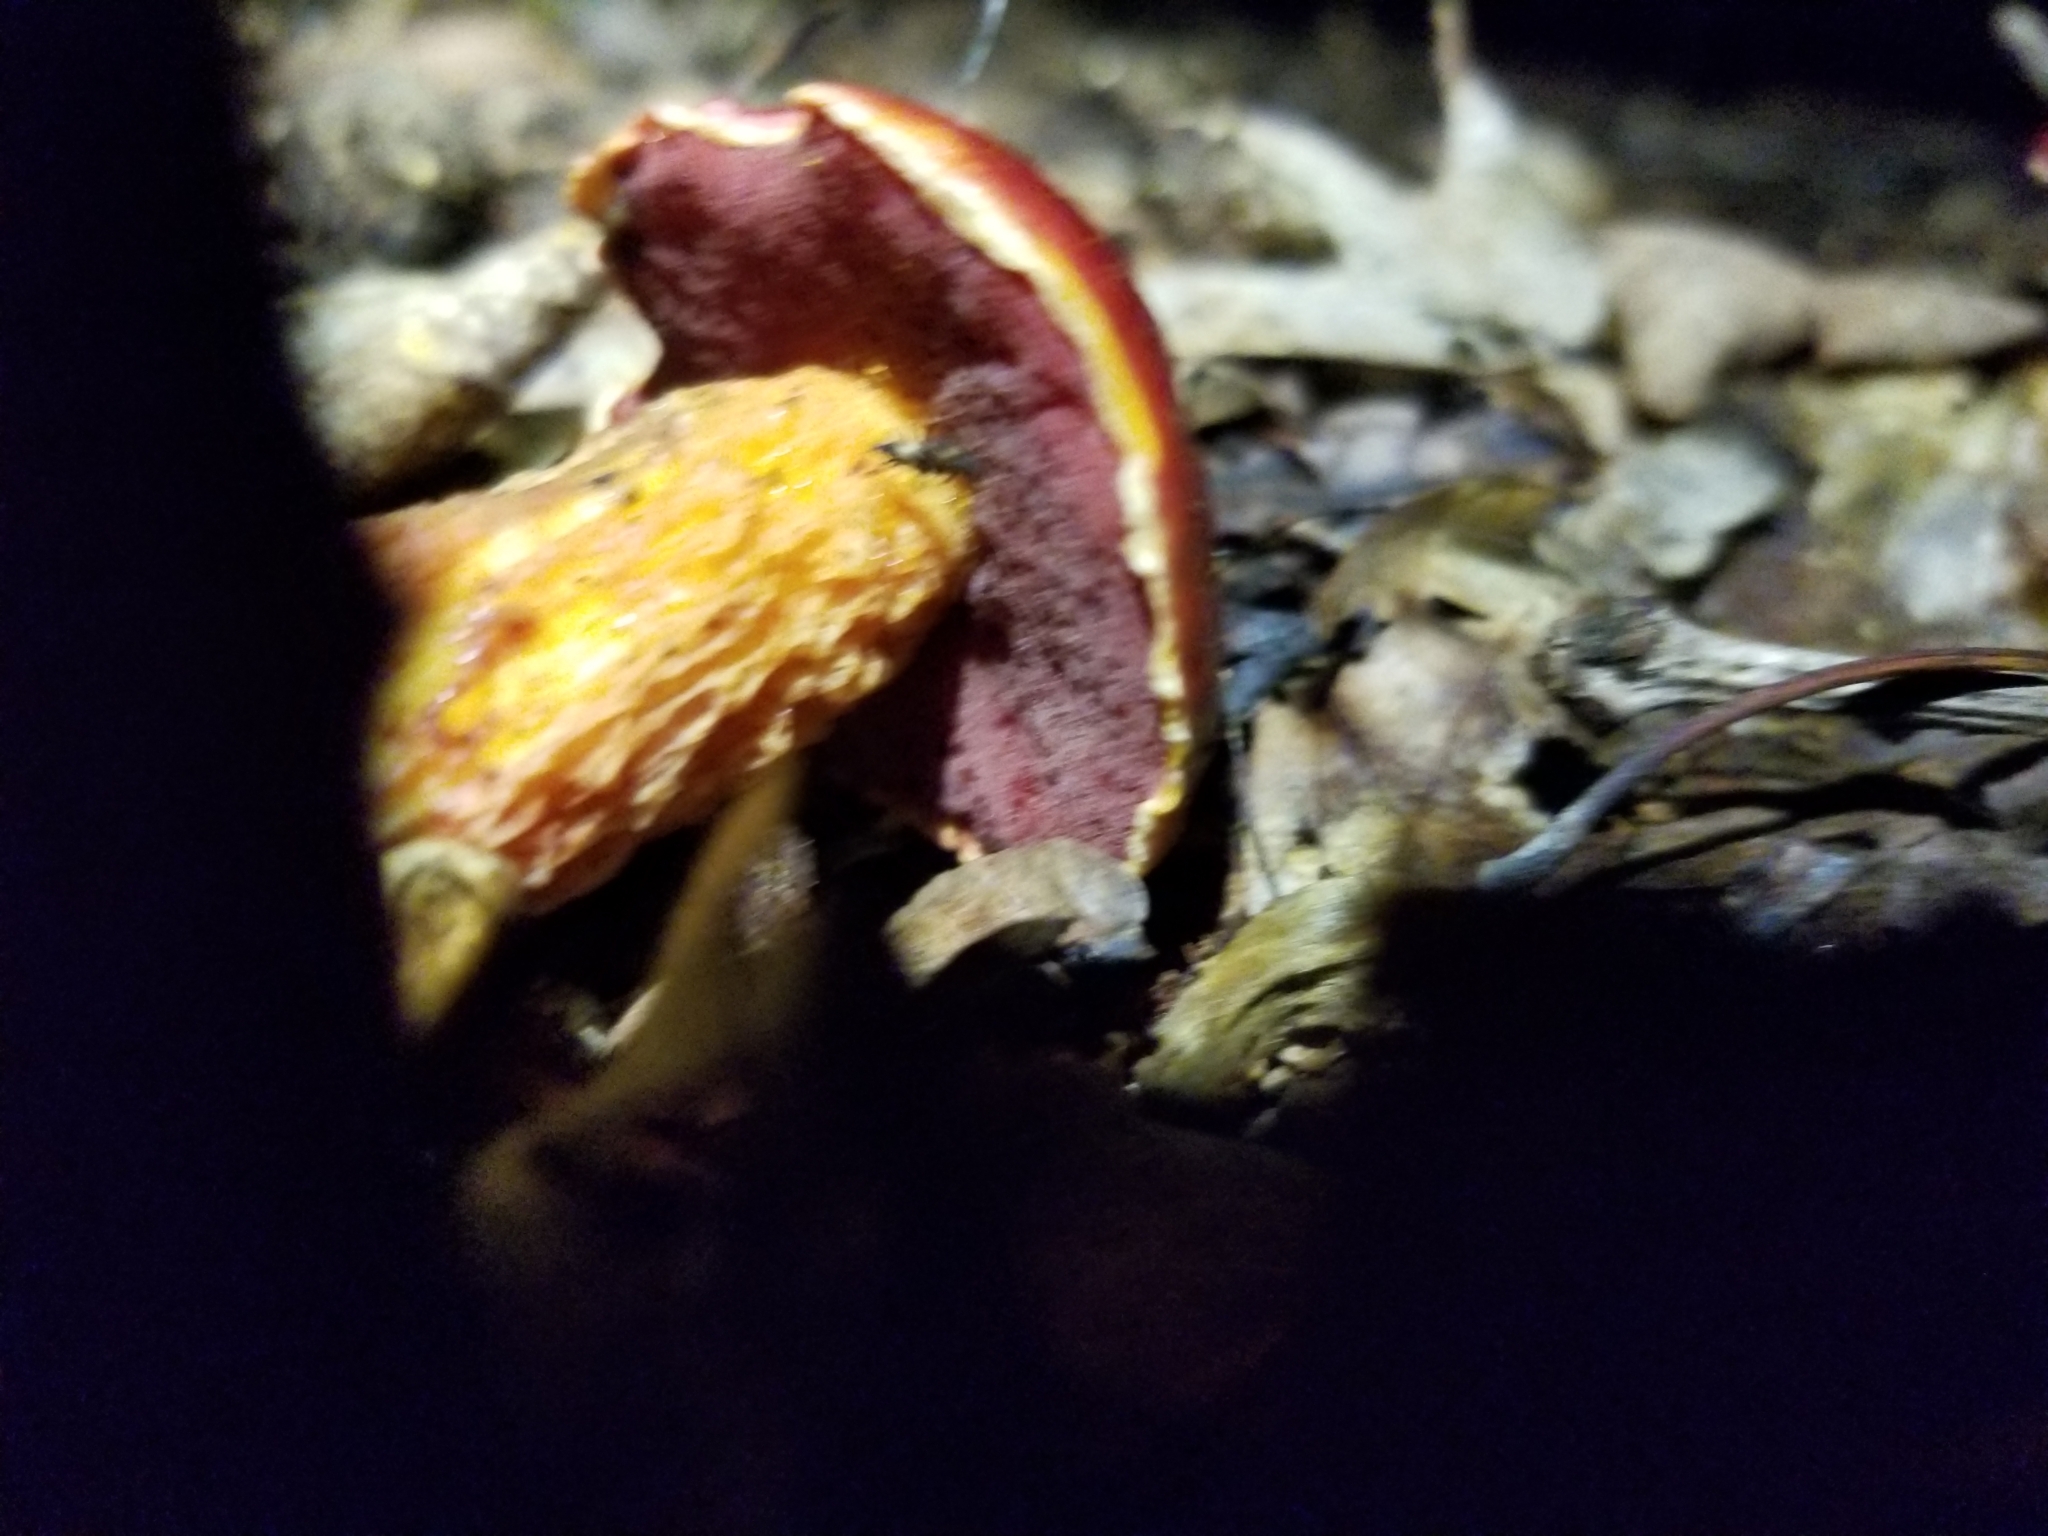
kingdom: Fungi
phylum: Basidiomycota
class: Agaricomycetes
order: Boletales
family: Boletaceae
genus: Butyriboletus
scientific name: Butyriboletus frostii
